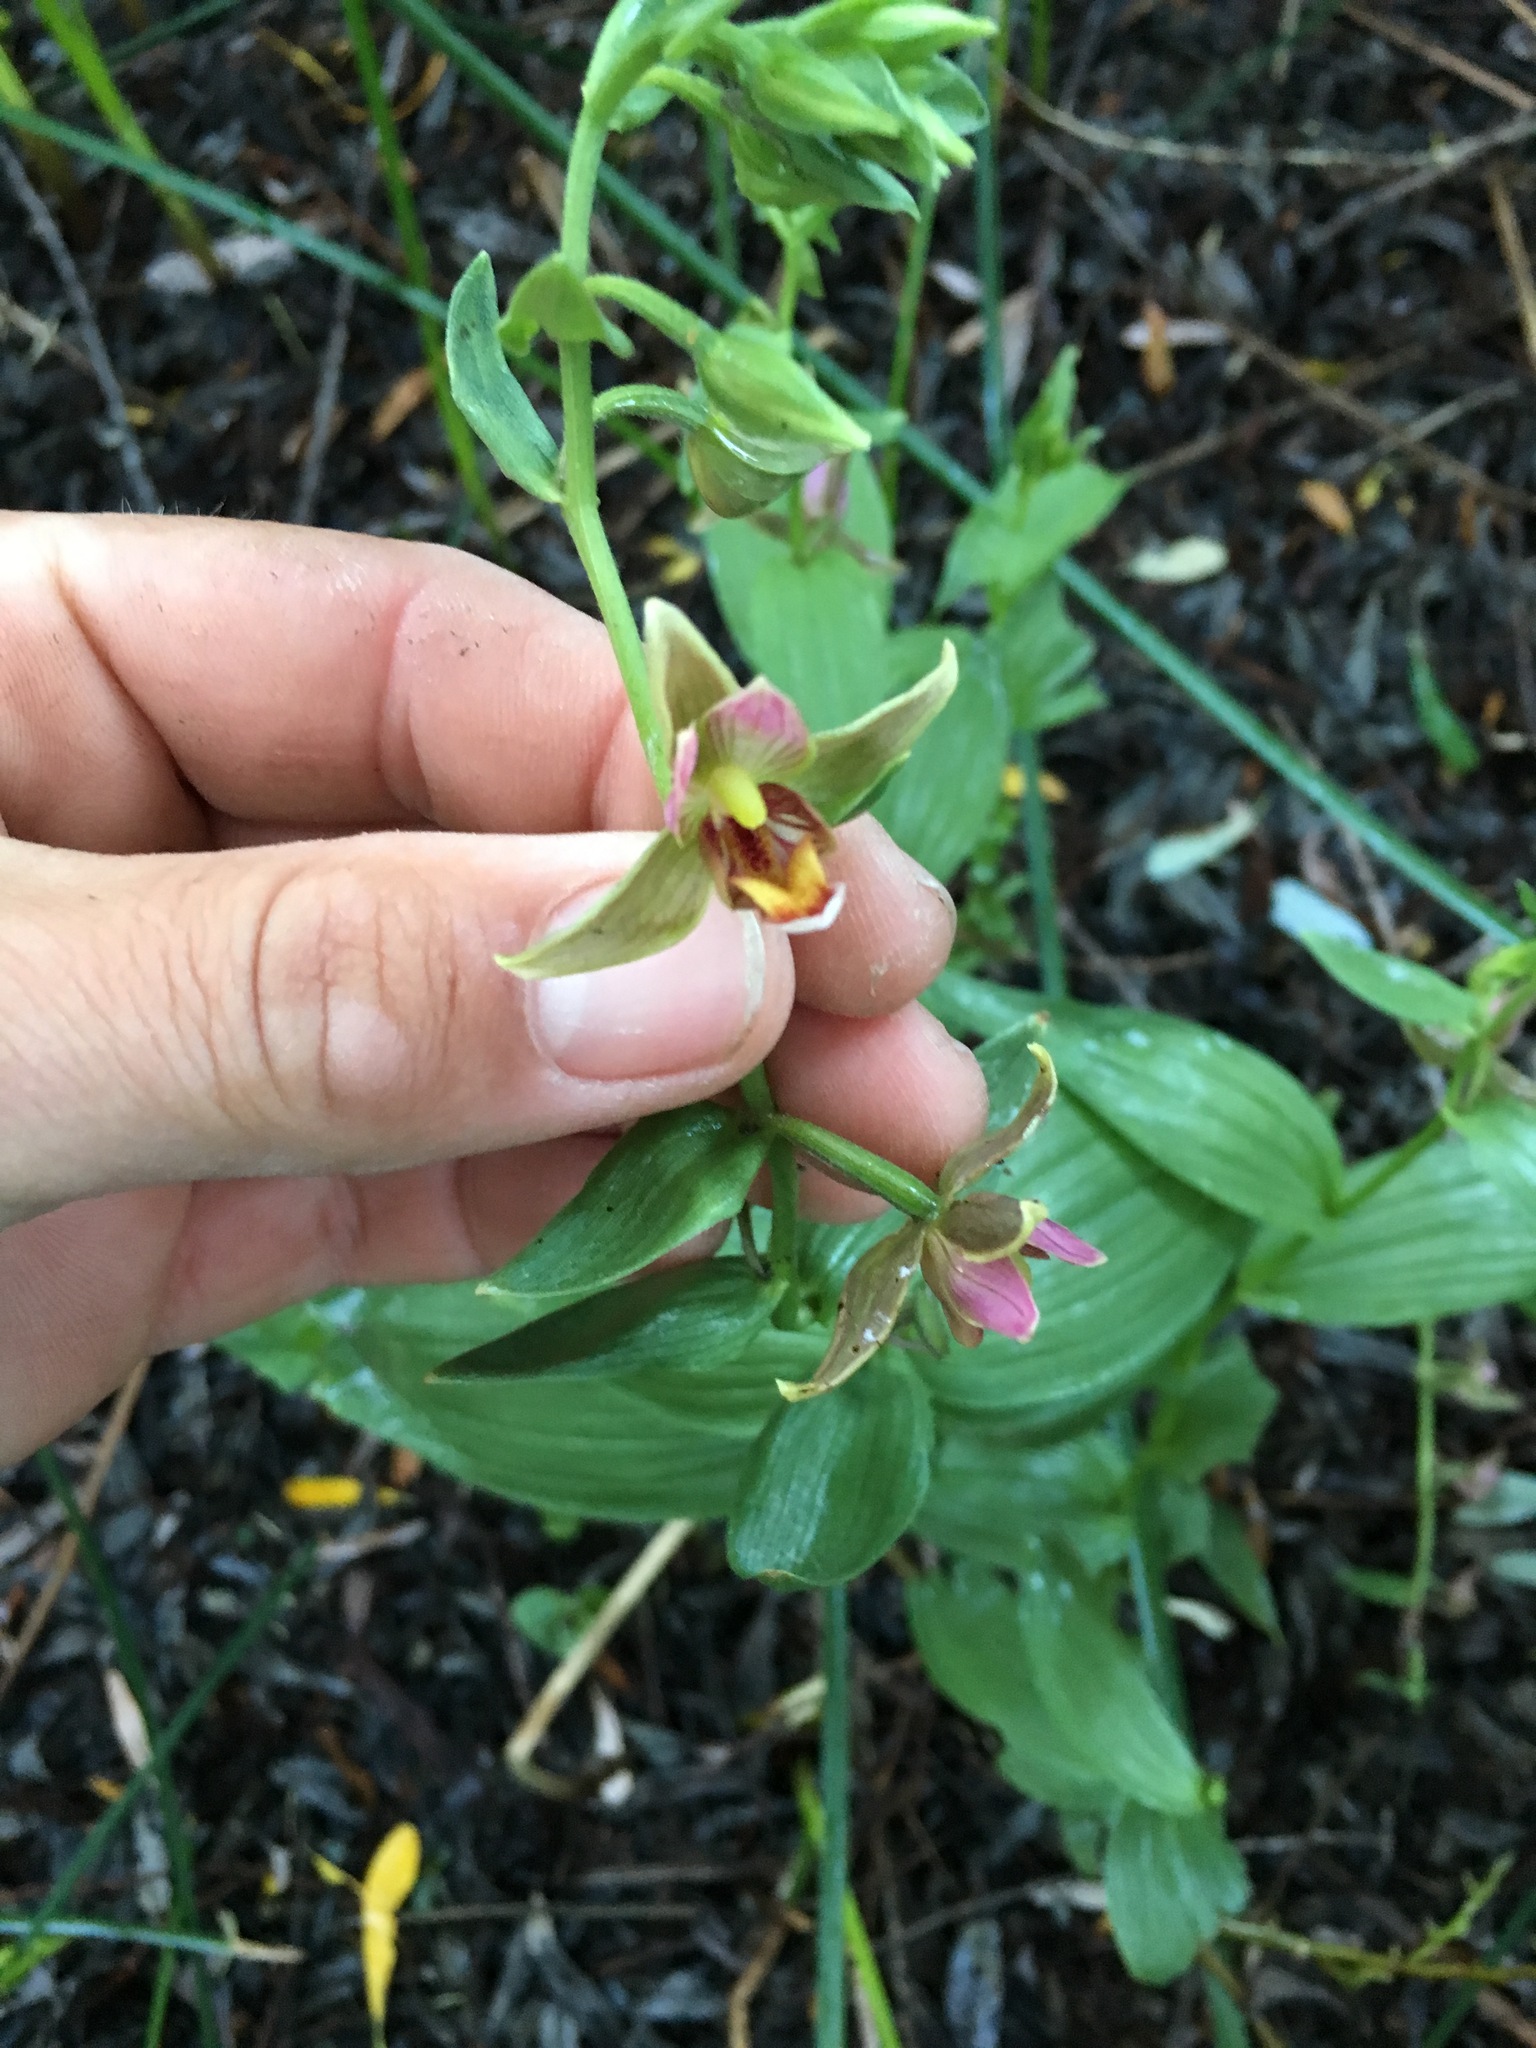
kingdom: Plantae
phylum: Tracheophyta
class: Liliopsida
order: Asparagales
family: Orchidaceae
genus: Epipactis
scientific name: Epipactis gigantea
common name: Chatterbox
